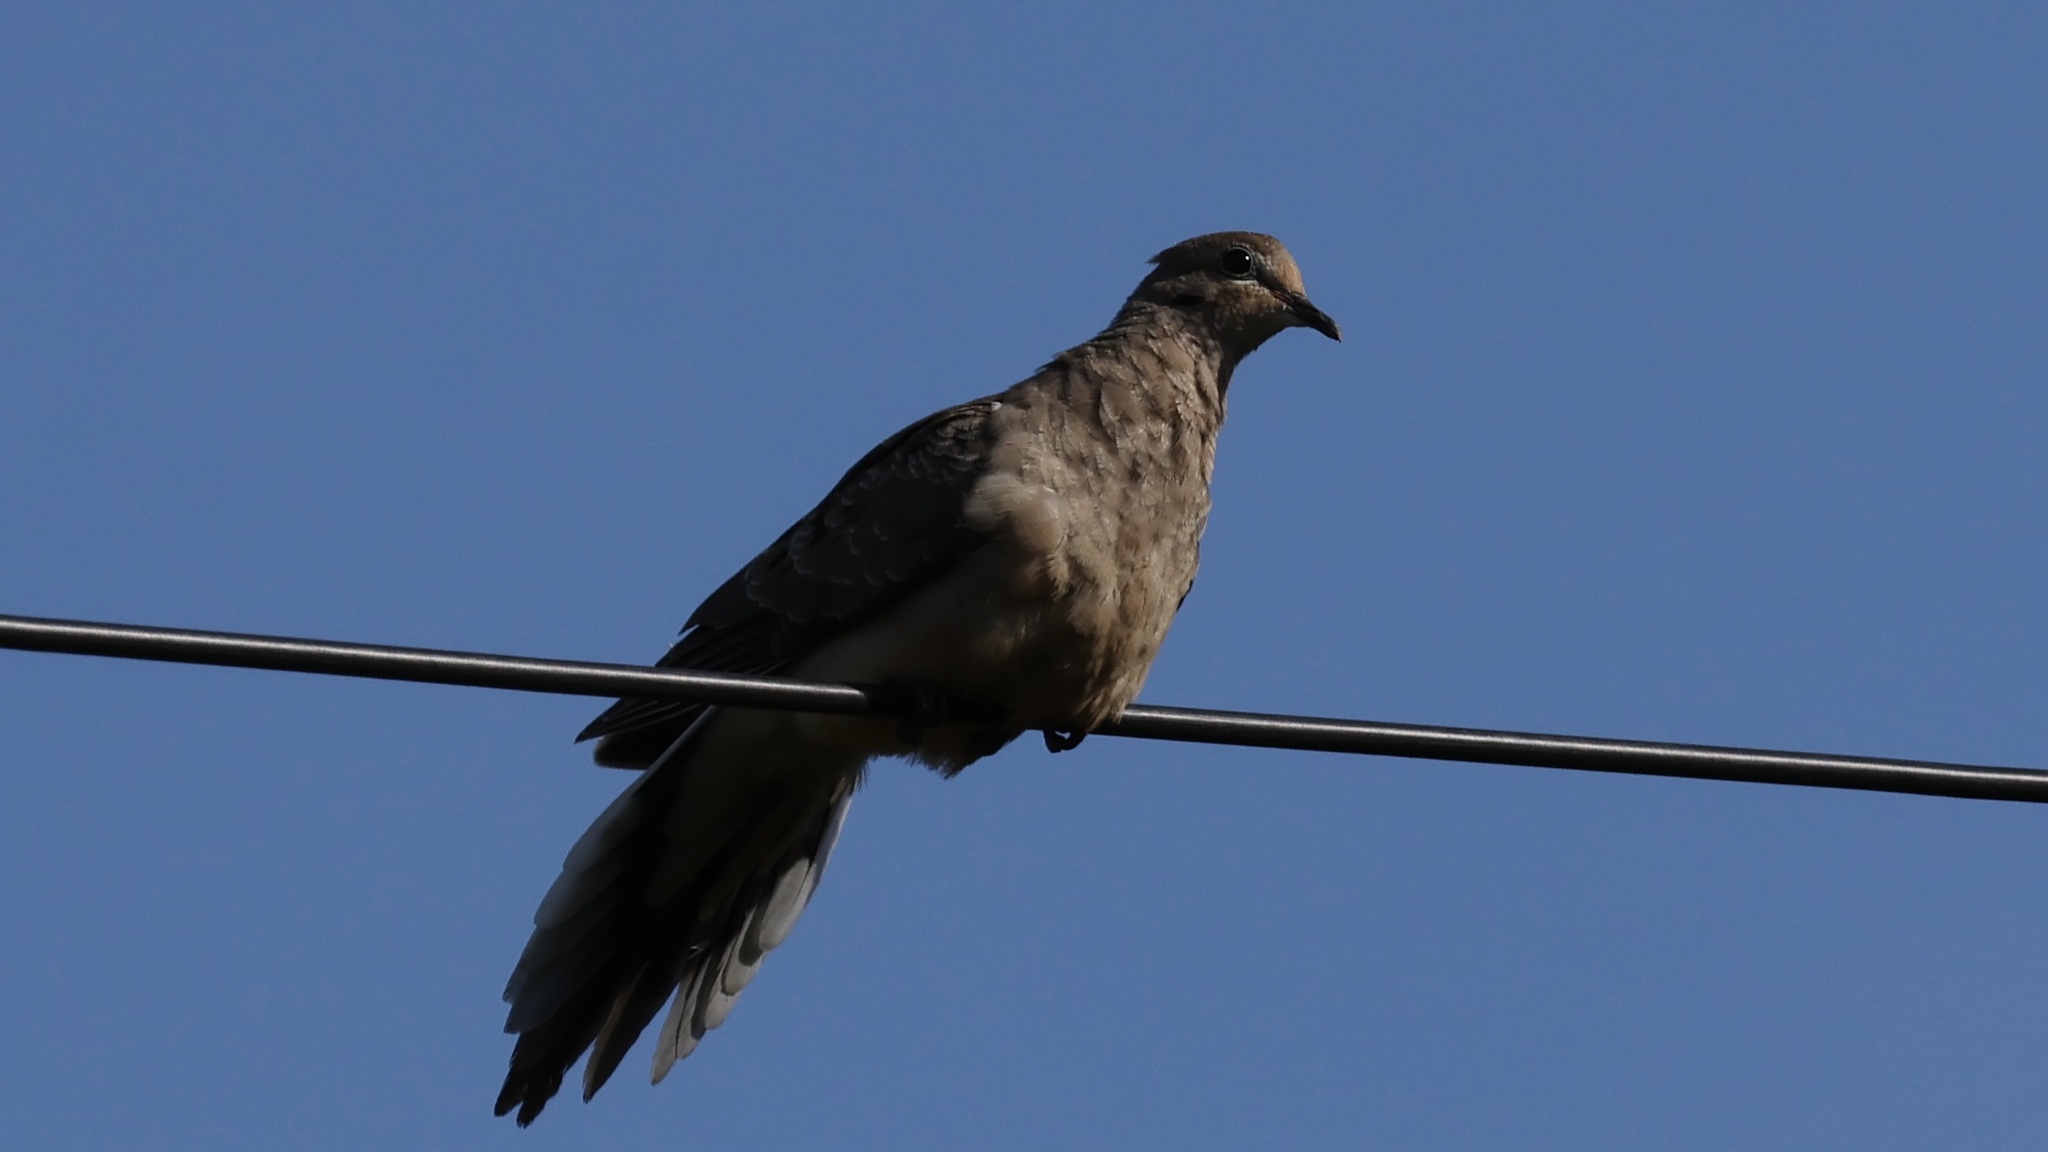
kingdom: Animalia
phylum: Chordata
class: Aves
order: Columbiformes
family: Columbidae
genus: Zenaida
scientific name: Zenaida macroura
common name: Mourning dove
